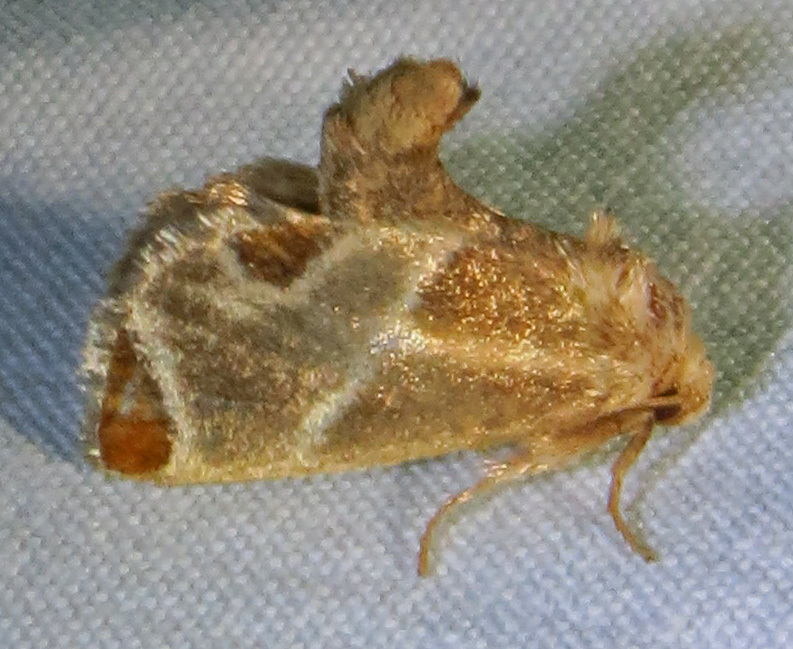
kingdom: Animalia
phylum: Arthropoda
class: Insecta
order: Lepidoptera
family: Limacodidae
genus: Apoda
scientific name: Apoda biguttata
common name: Shagreened slug moth
